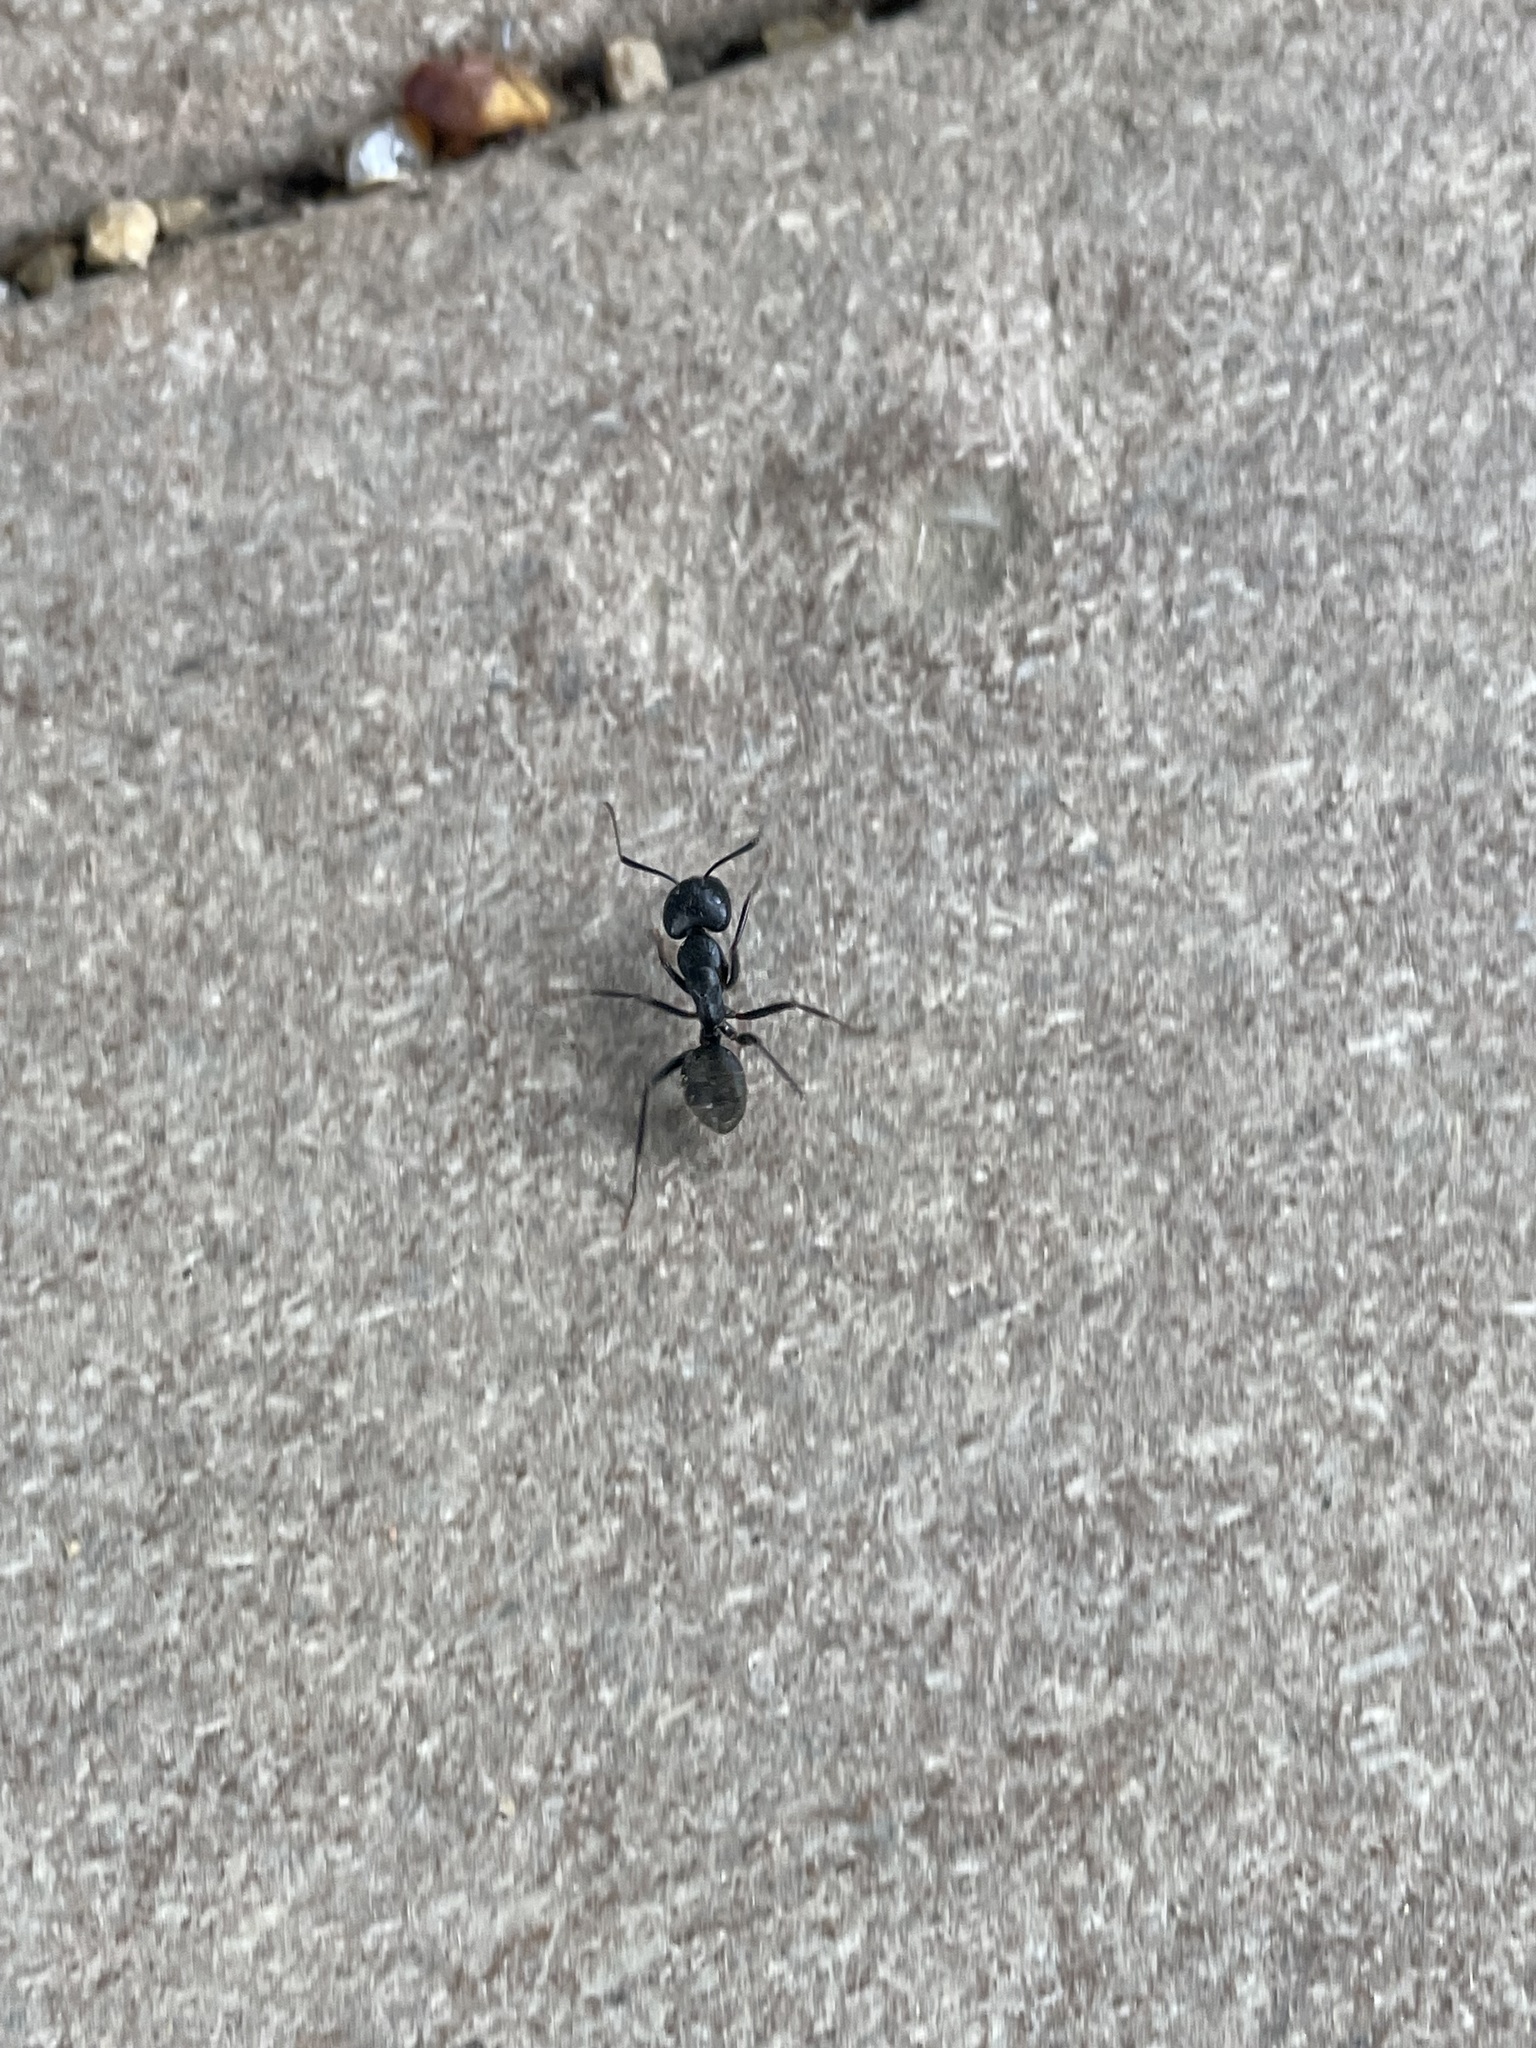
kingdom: Animalia
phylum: Arthropoda
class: Insecta
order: Hymenoptera
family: Formicidae
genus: Camponotus
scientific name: Camponotus pennsylvanicus
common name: Black carpenter ant
